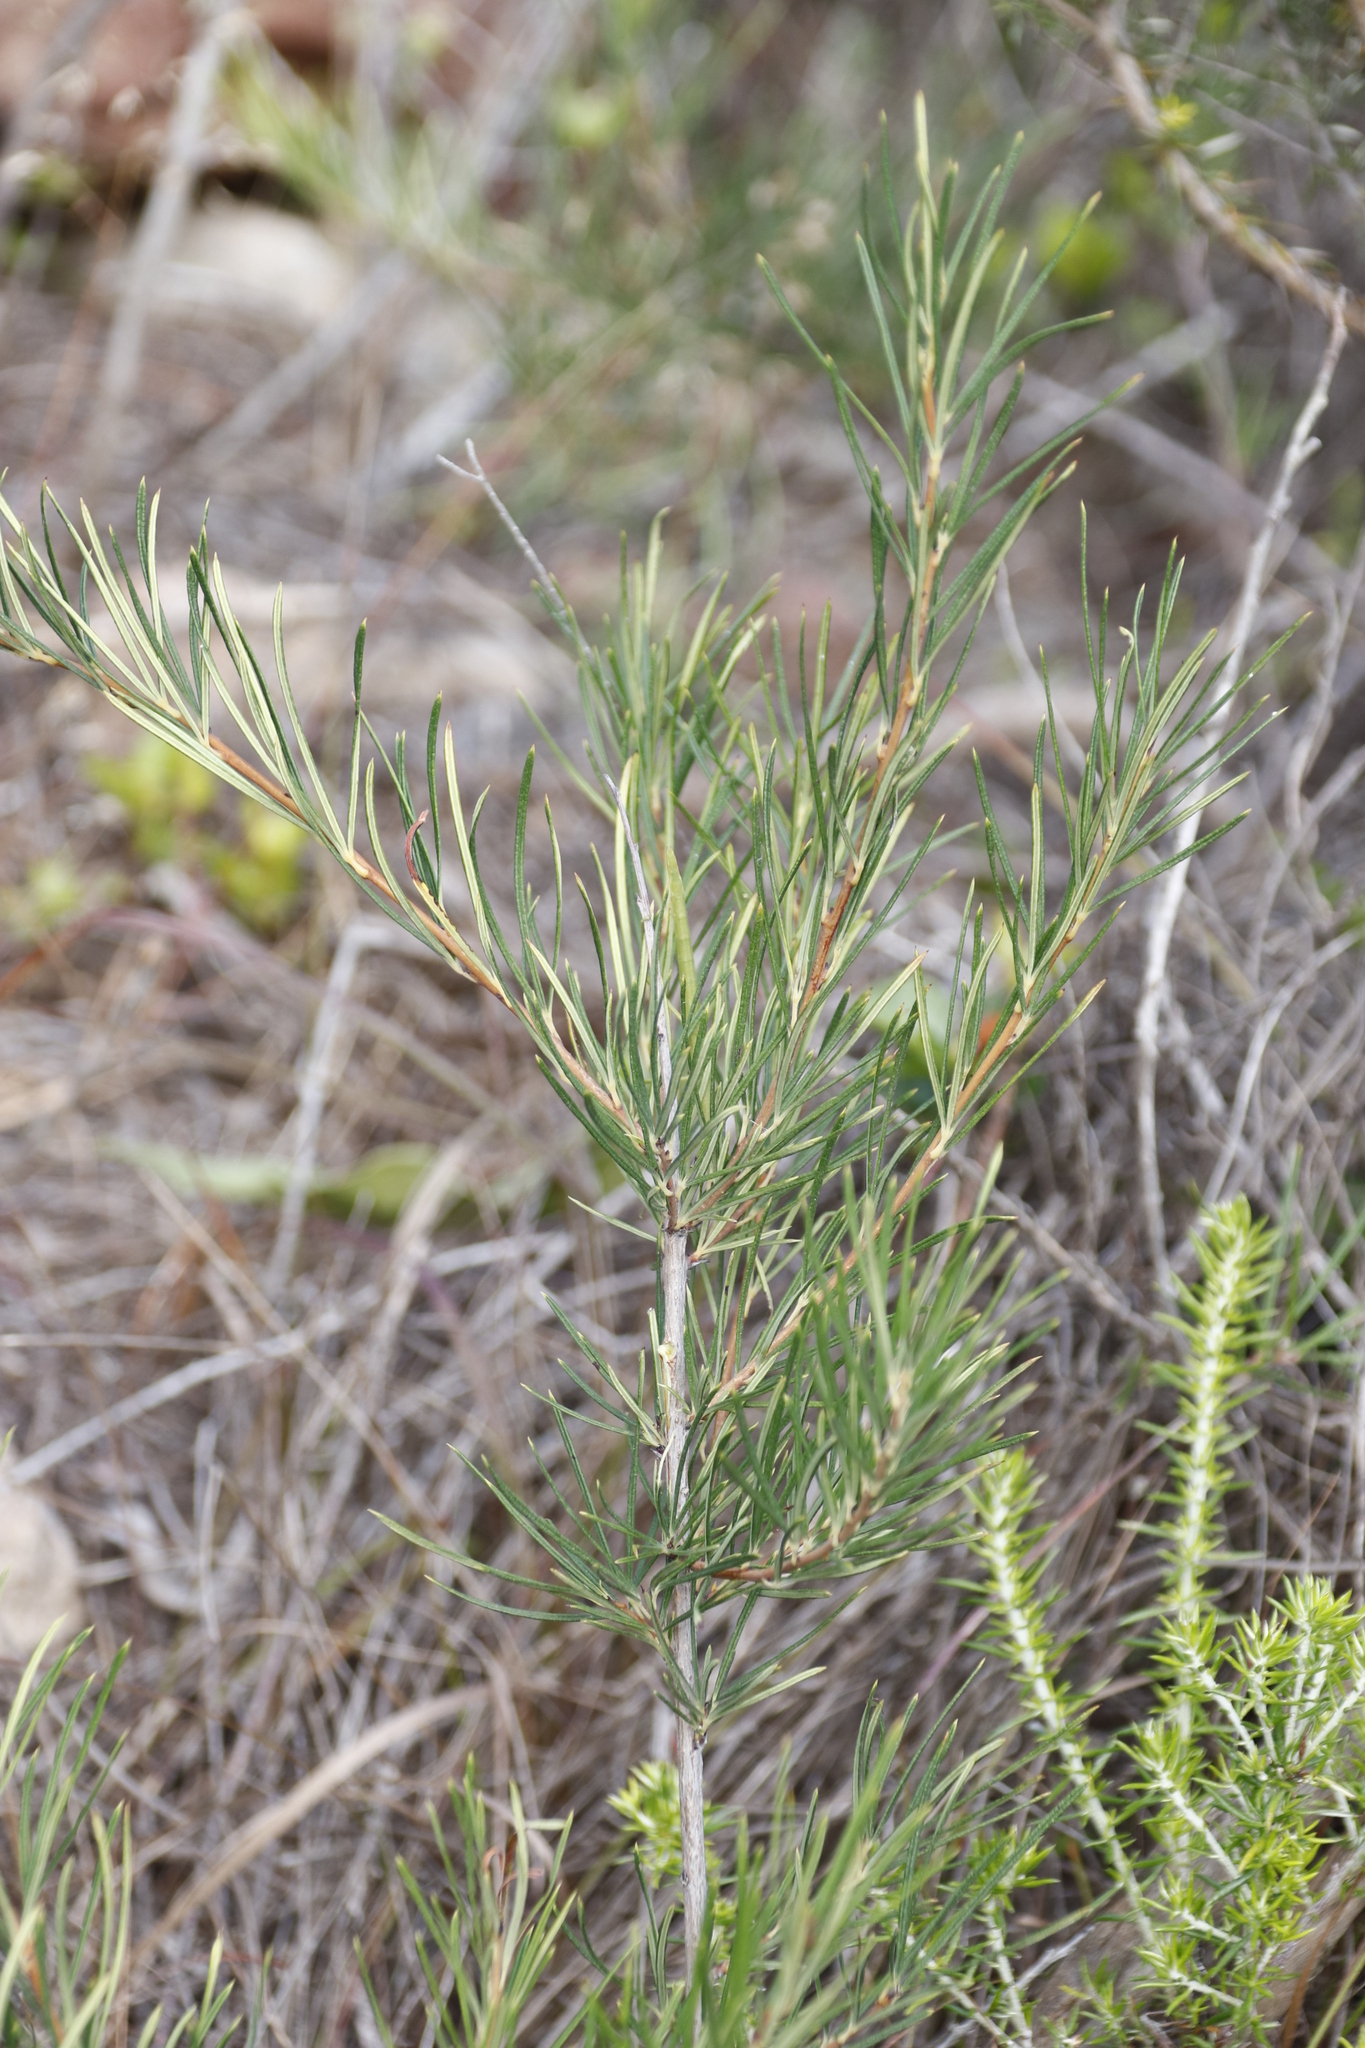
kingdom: Plantae
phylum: Tracheophyta
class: Magnoliopsida
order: Sapindales
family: Anacardiaceae
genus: Searsia
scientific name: Searsia rosmarinifolia
